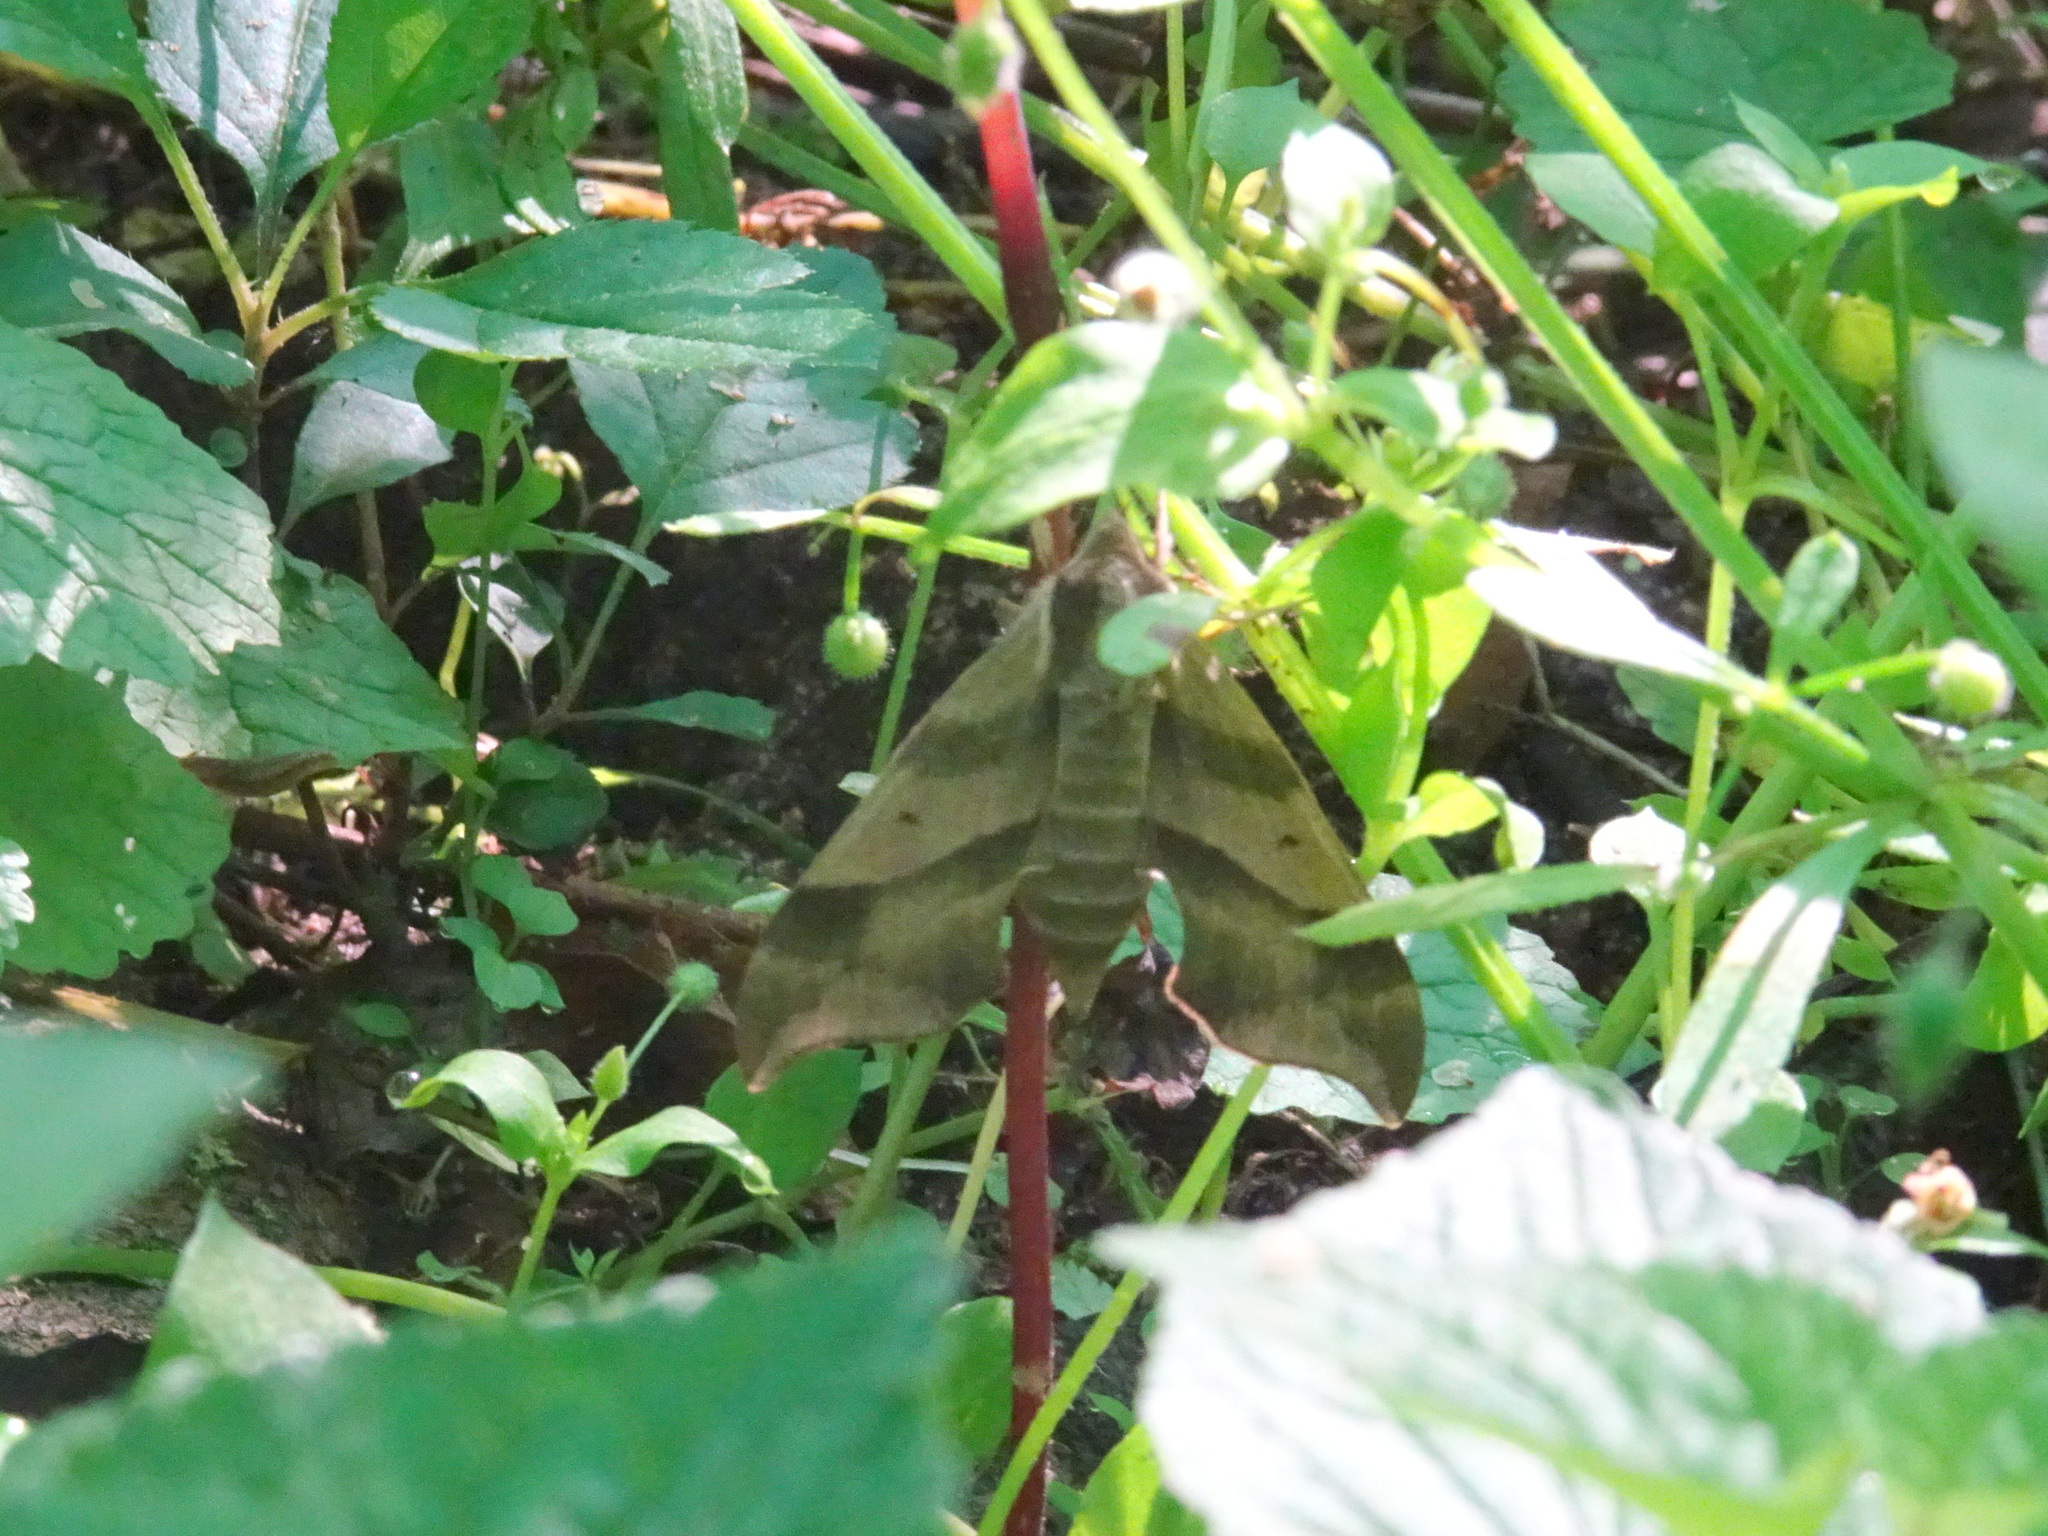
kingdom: Animalia
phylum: Arthropoda
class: Insecta
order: Lepidoptera
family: Sphingidae
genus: Darapsa
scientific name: Darapsa myron
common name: Hog sphinx
